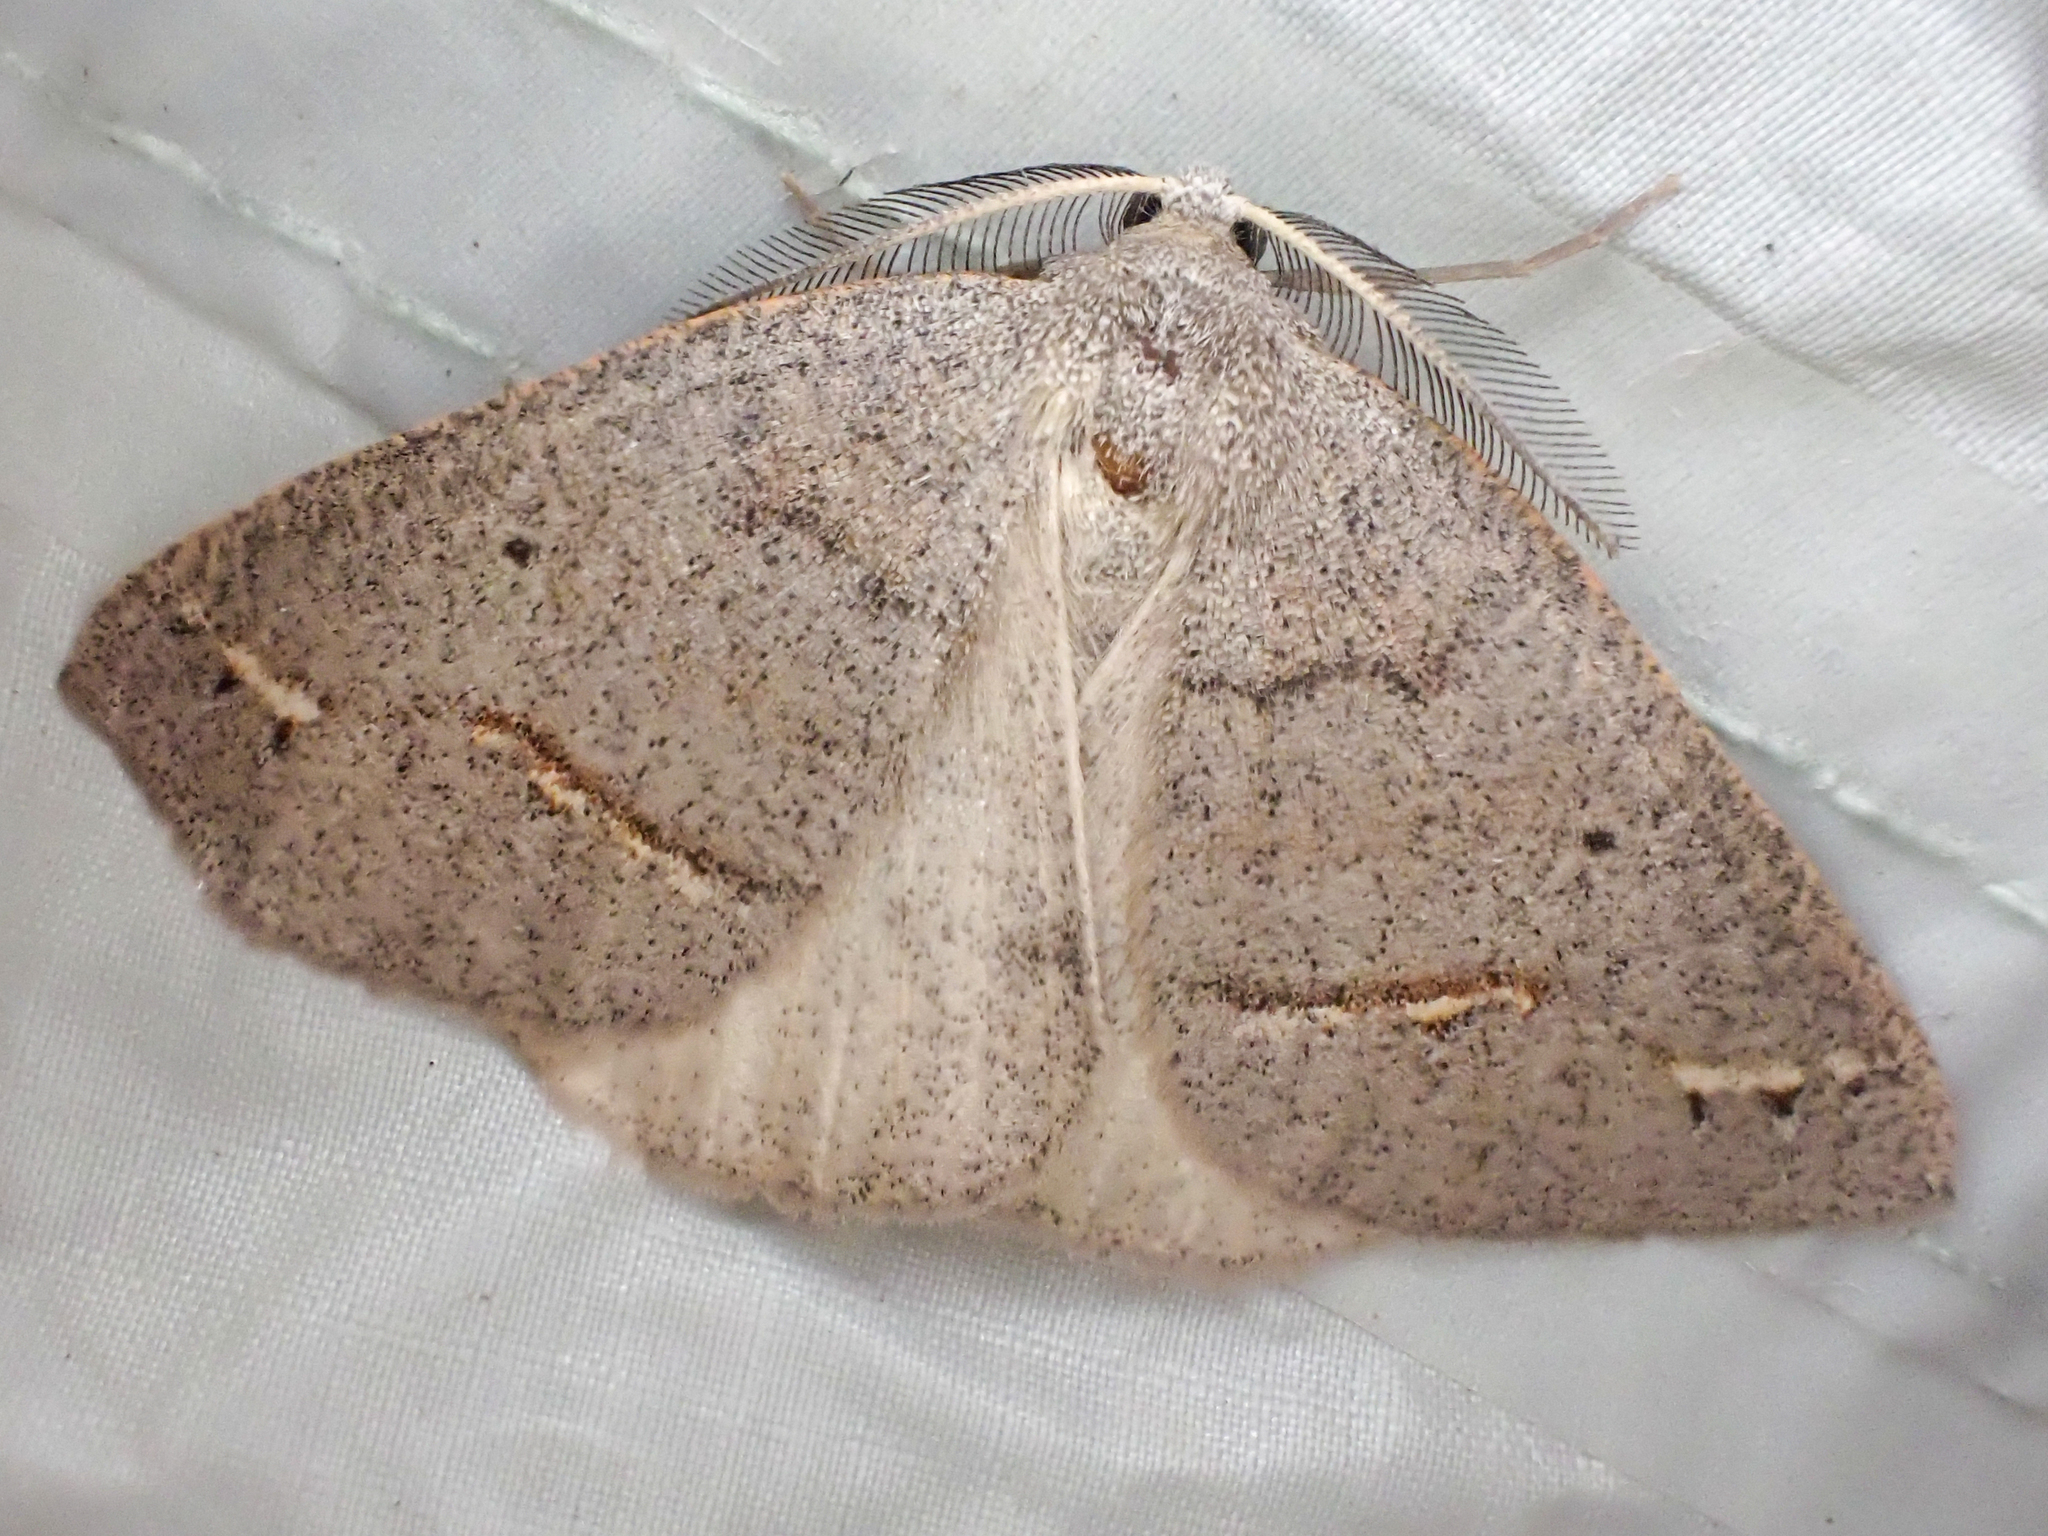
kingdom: Animalia
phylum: Arthropoda
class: Insecta
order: Lepidoptera
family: Geometridae
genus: Drepanulatrix
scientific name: Drepanulatrix unicalcararia
